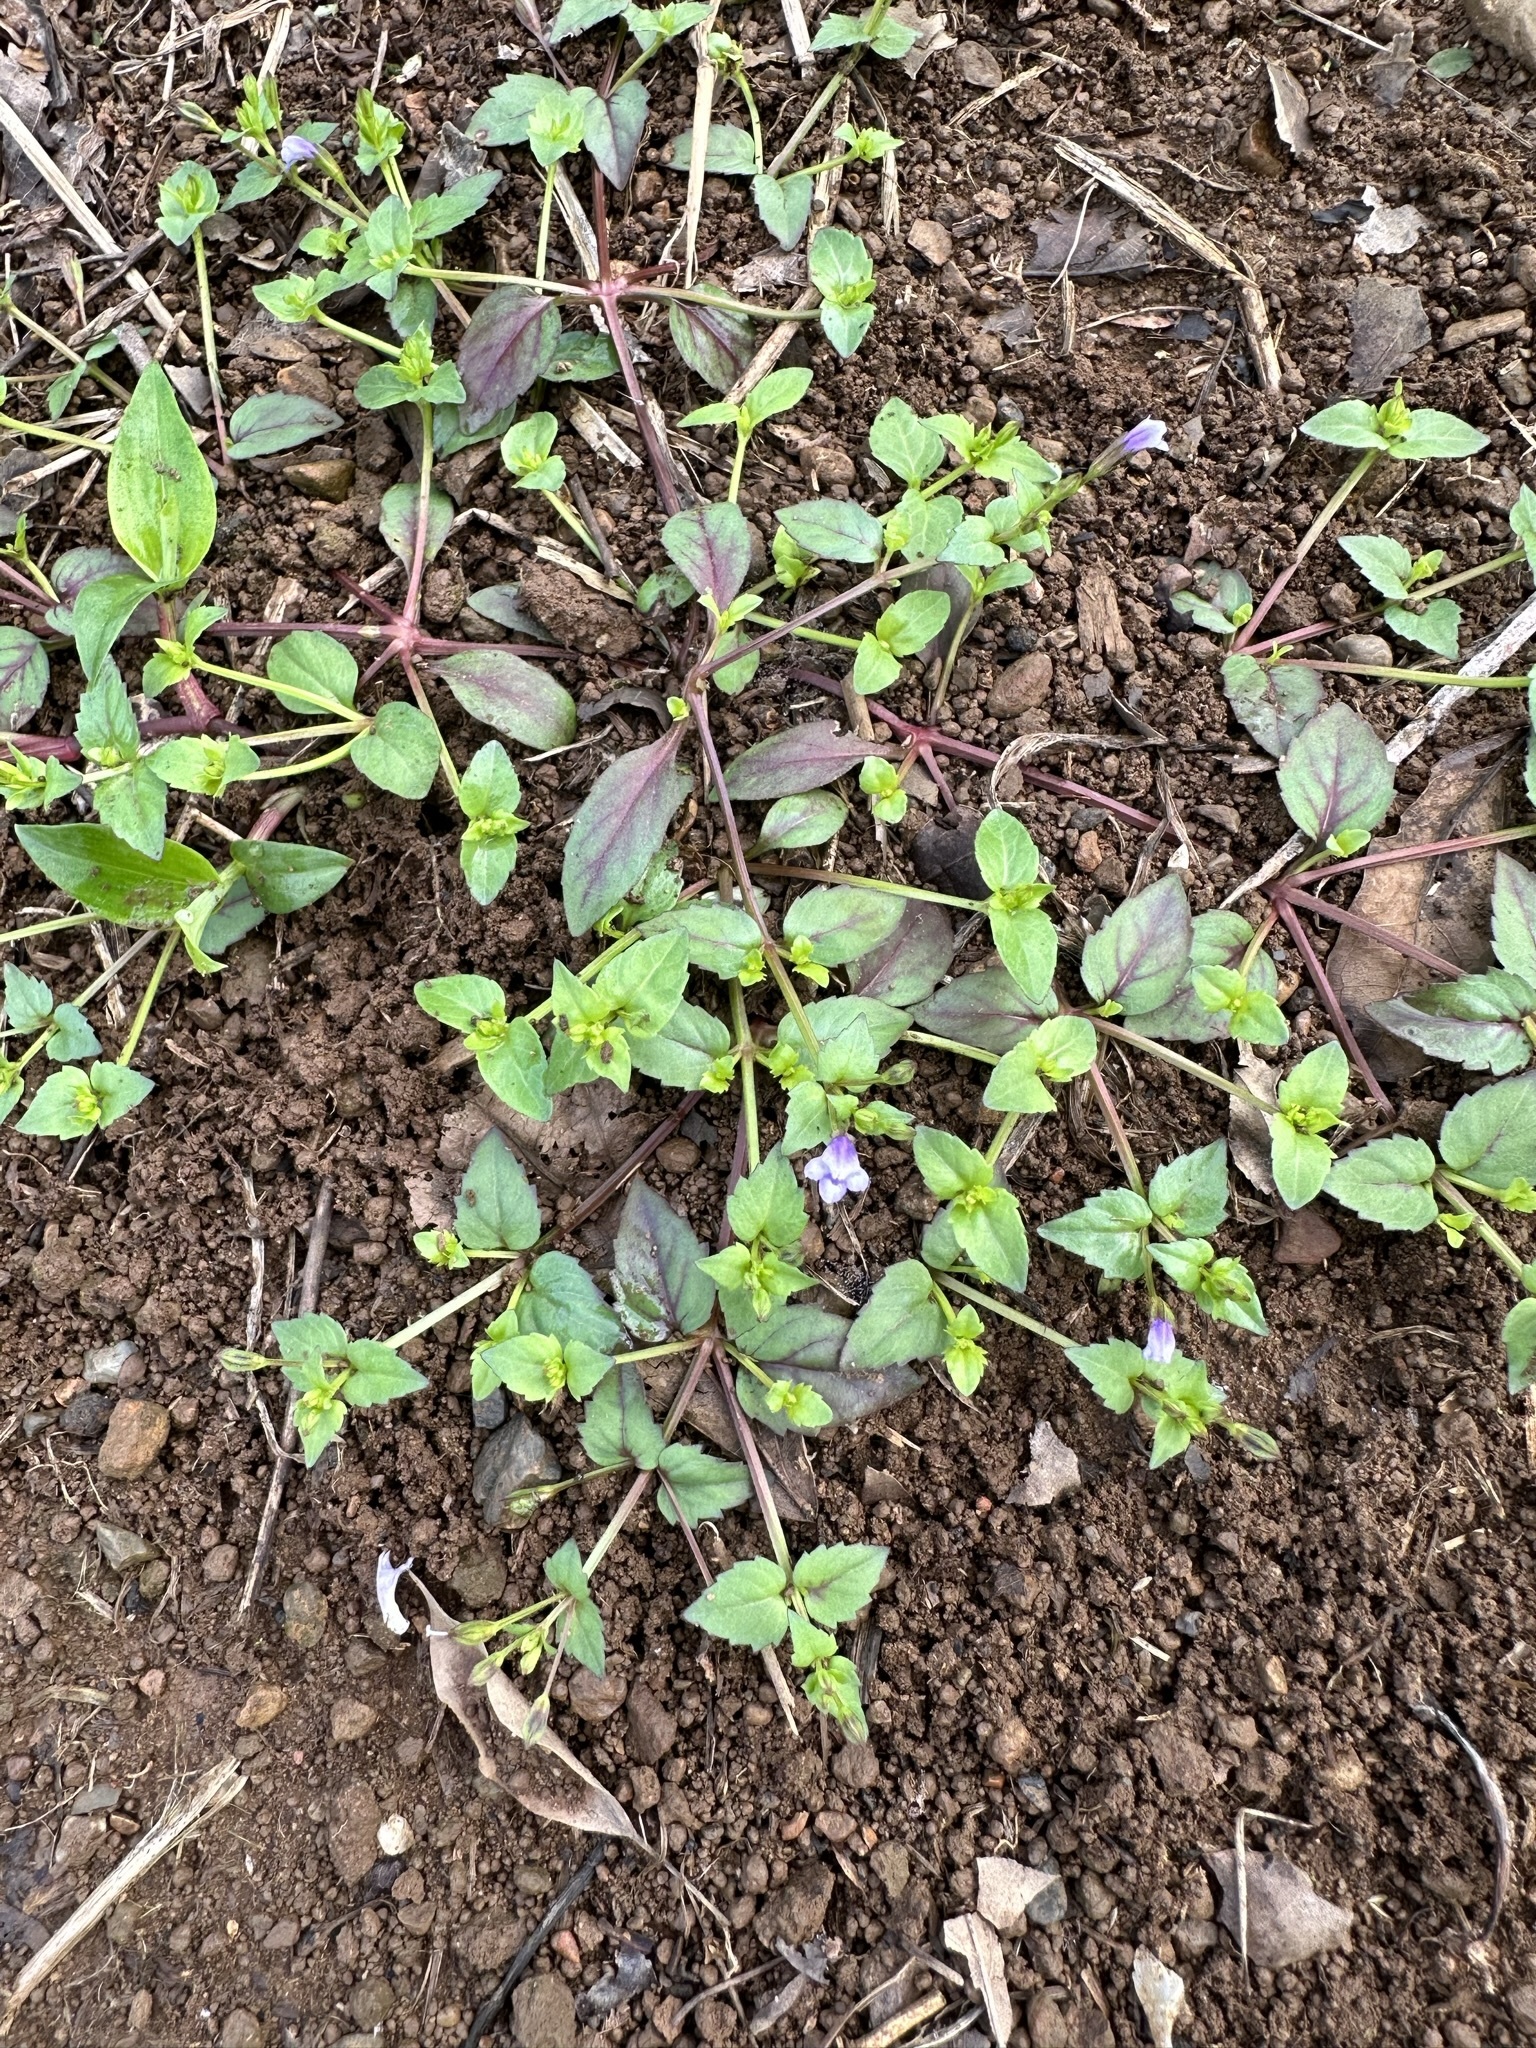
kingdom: Plantae
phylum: Tracheophyta
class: Magnoliopsida
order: Lamiales
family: Linderniaceae
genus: Torenia
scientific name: Torenia crustacea
